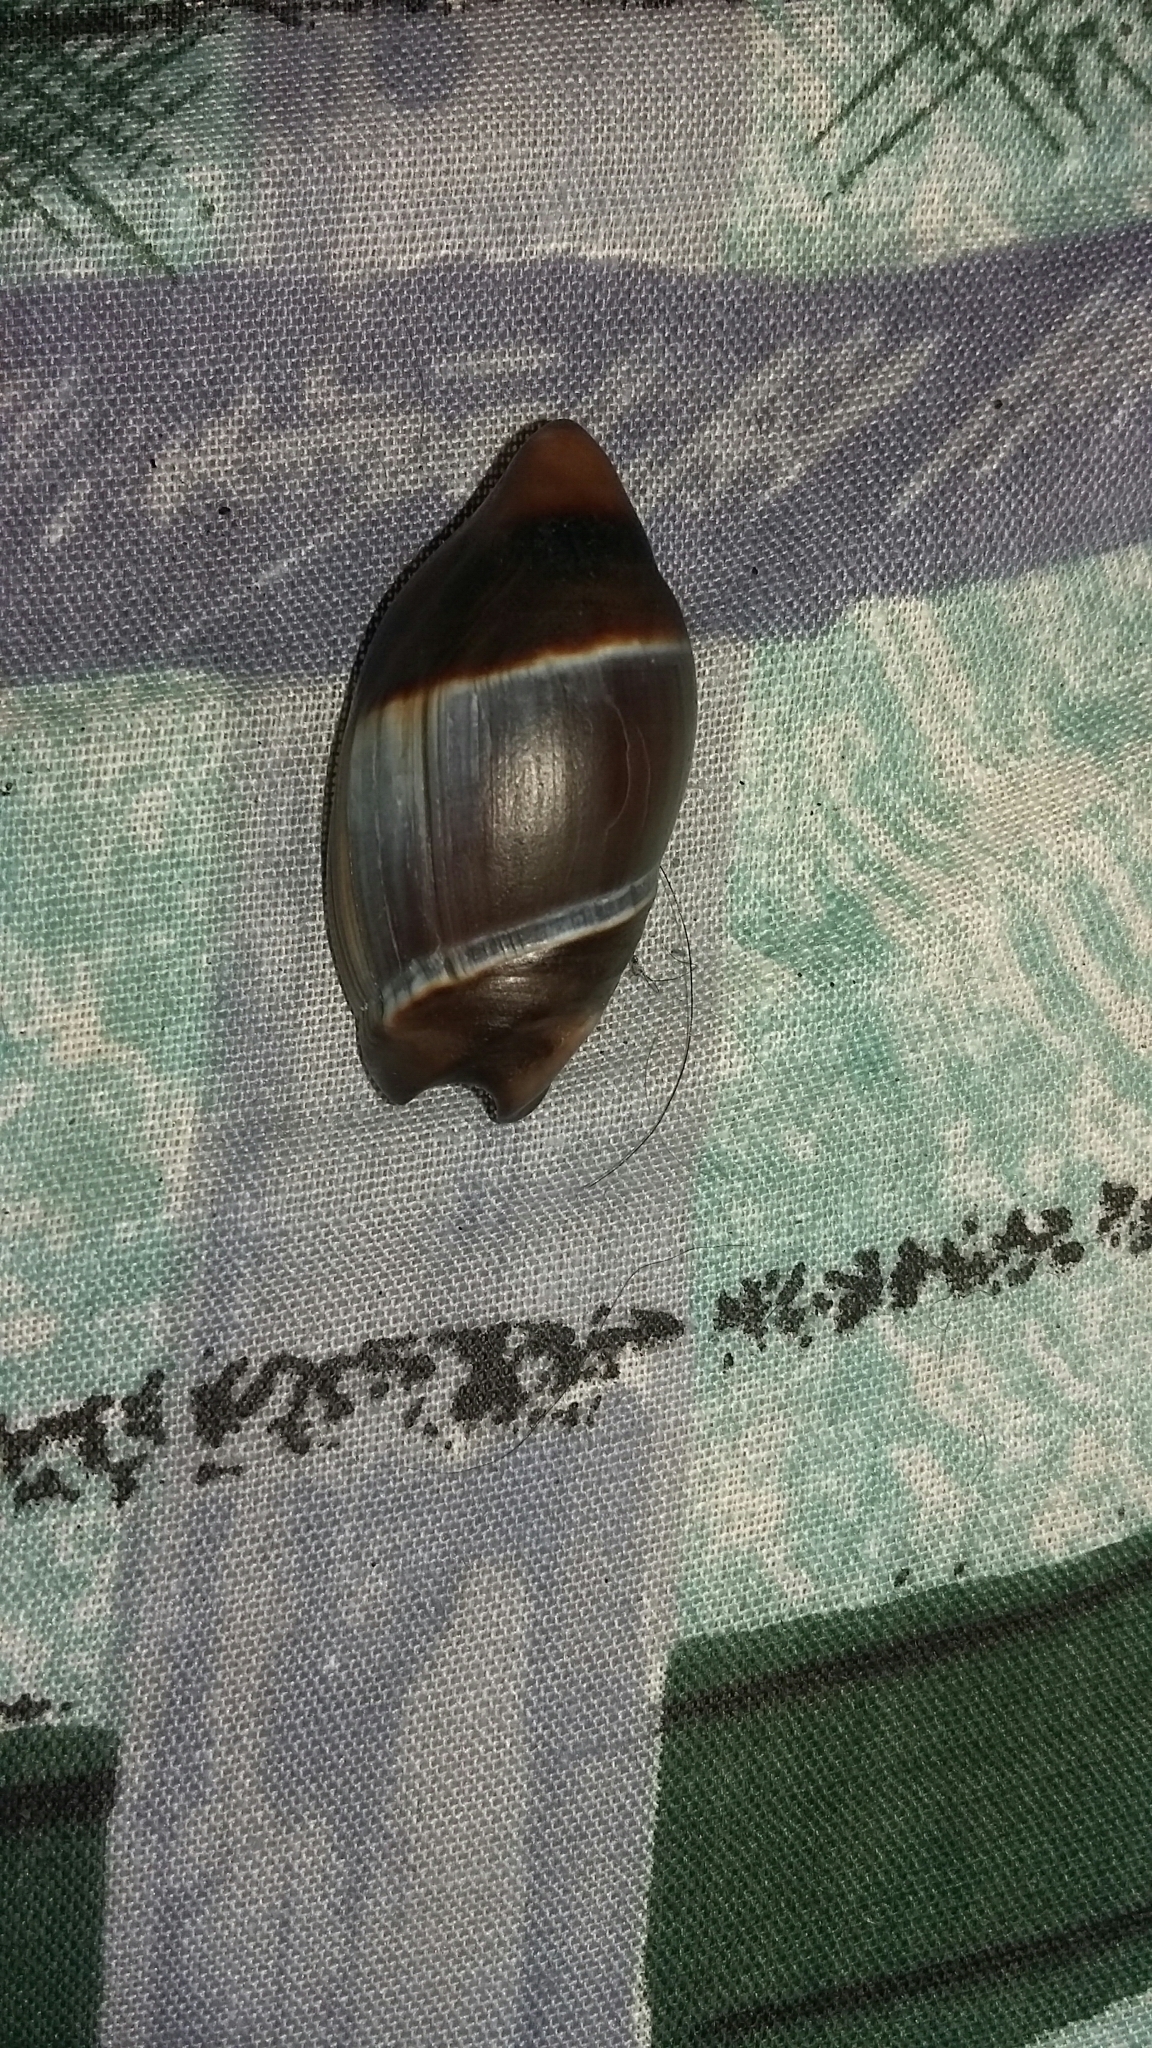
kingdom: Animalia
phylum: Mollusca
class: Gastropoda
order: Neogastropoda
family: Ancillariidae
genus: Amalda
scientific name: Amalda australis
